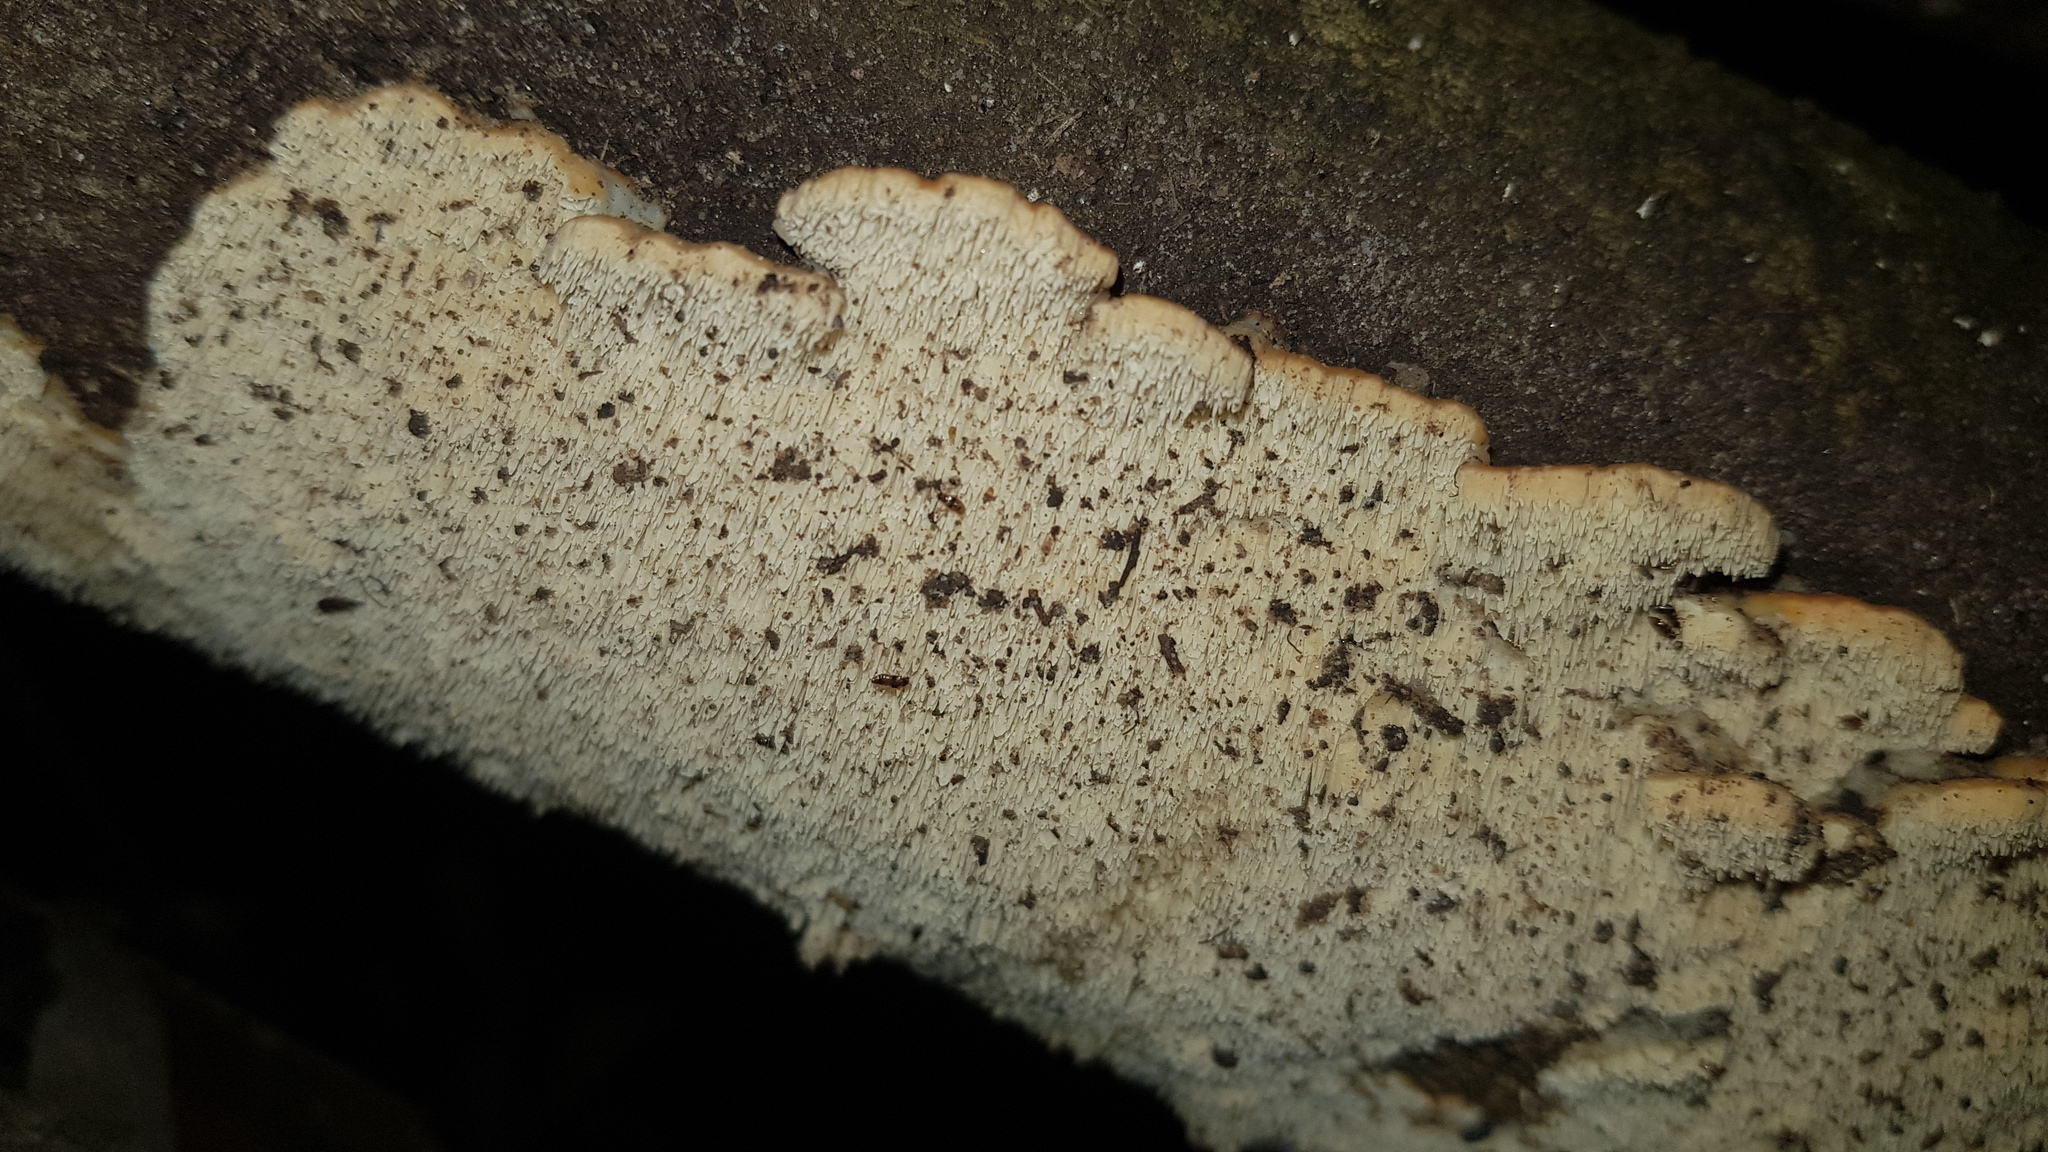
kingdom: Fungi
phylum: Basidiomycota
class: Agaricomycetes
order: Polyporales
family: Cerrenaceae
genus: Cerrena
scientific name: Cerrena zonata
